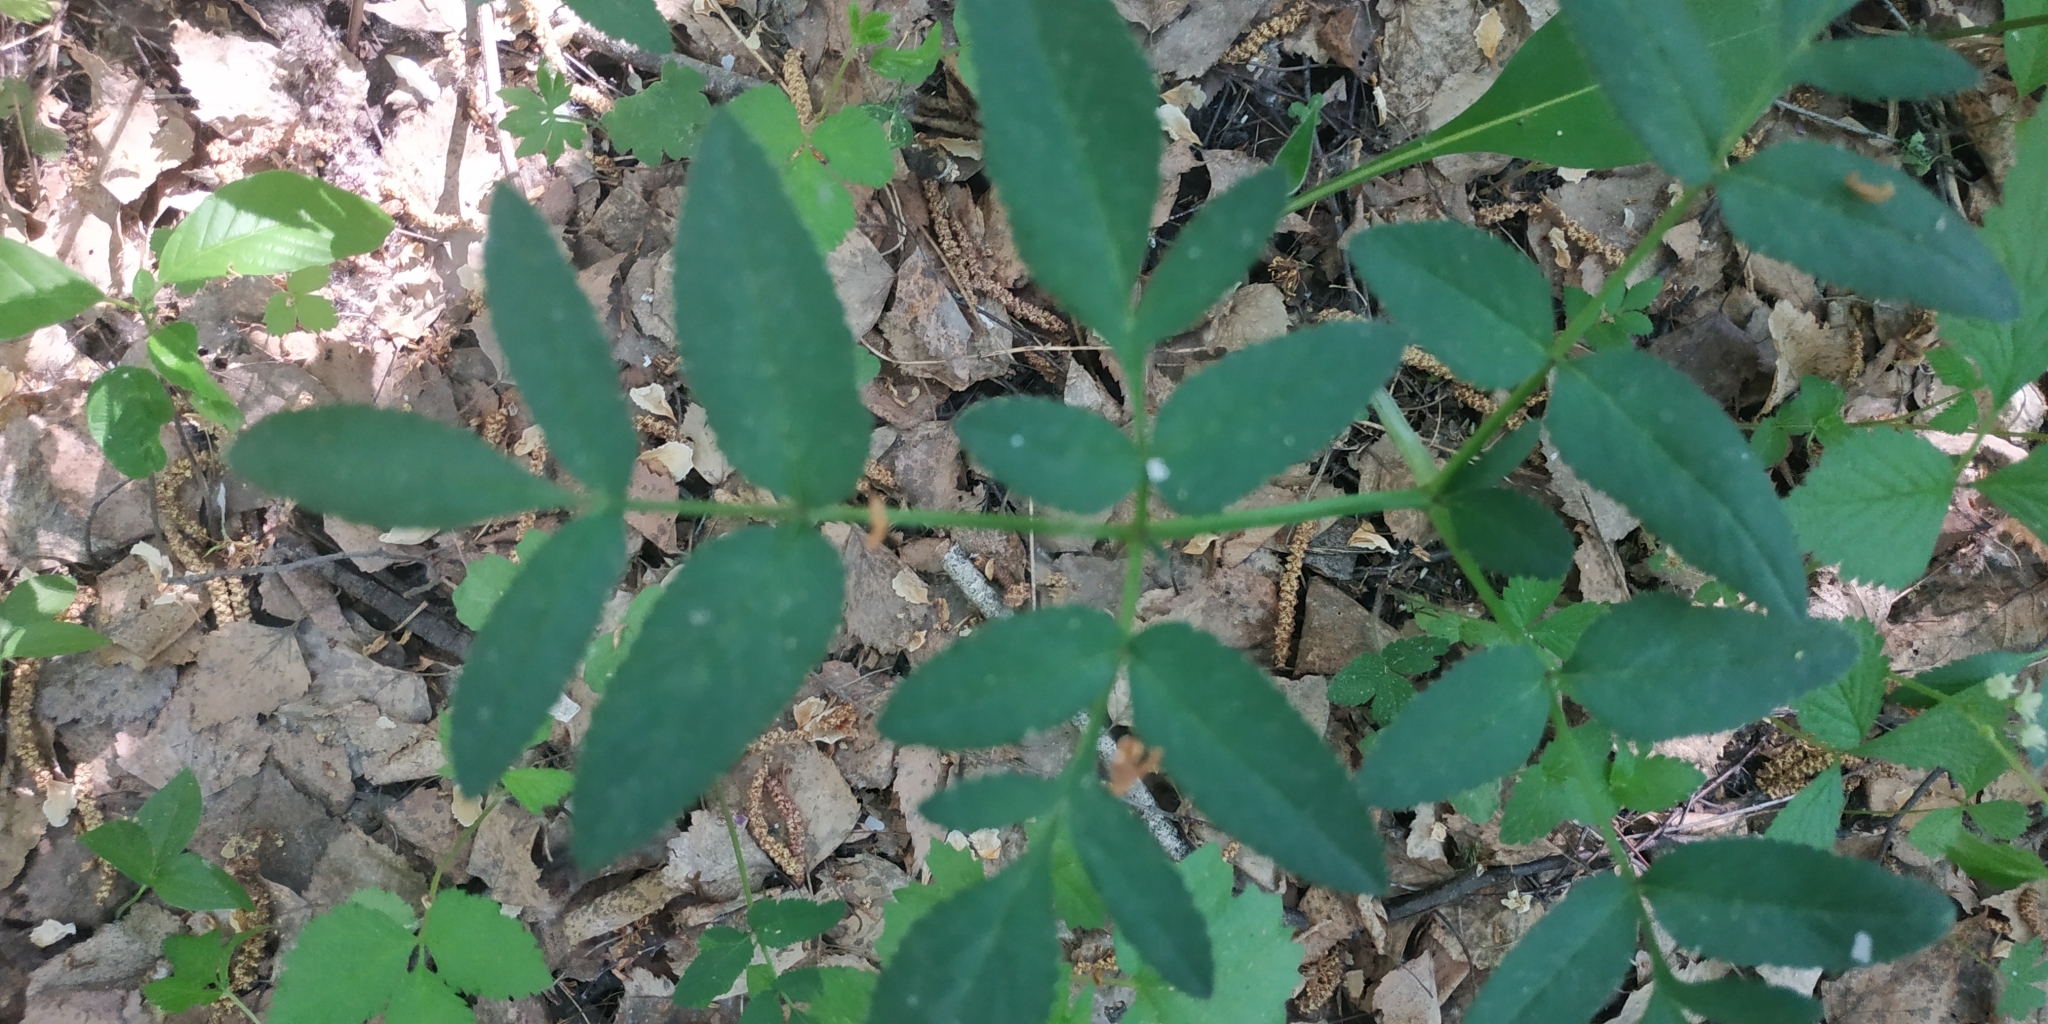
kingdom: Plantae
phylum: Tracheophyta
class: Magnoliopsida
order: Apiales
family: Apiaceae
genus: Angelica
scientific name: Angelica sylvestris
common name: Wild angelica
